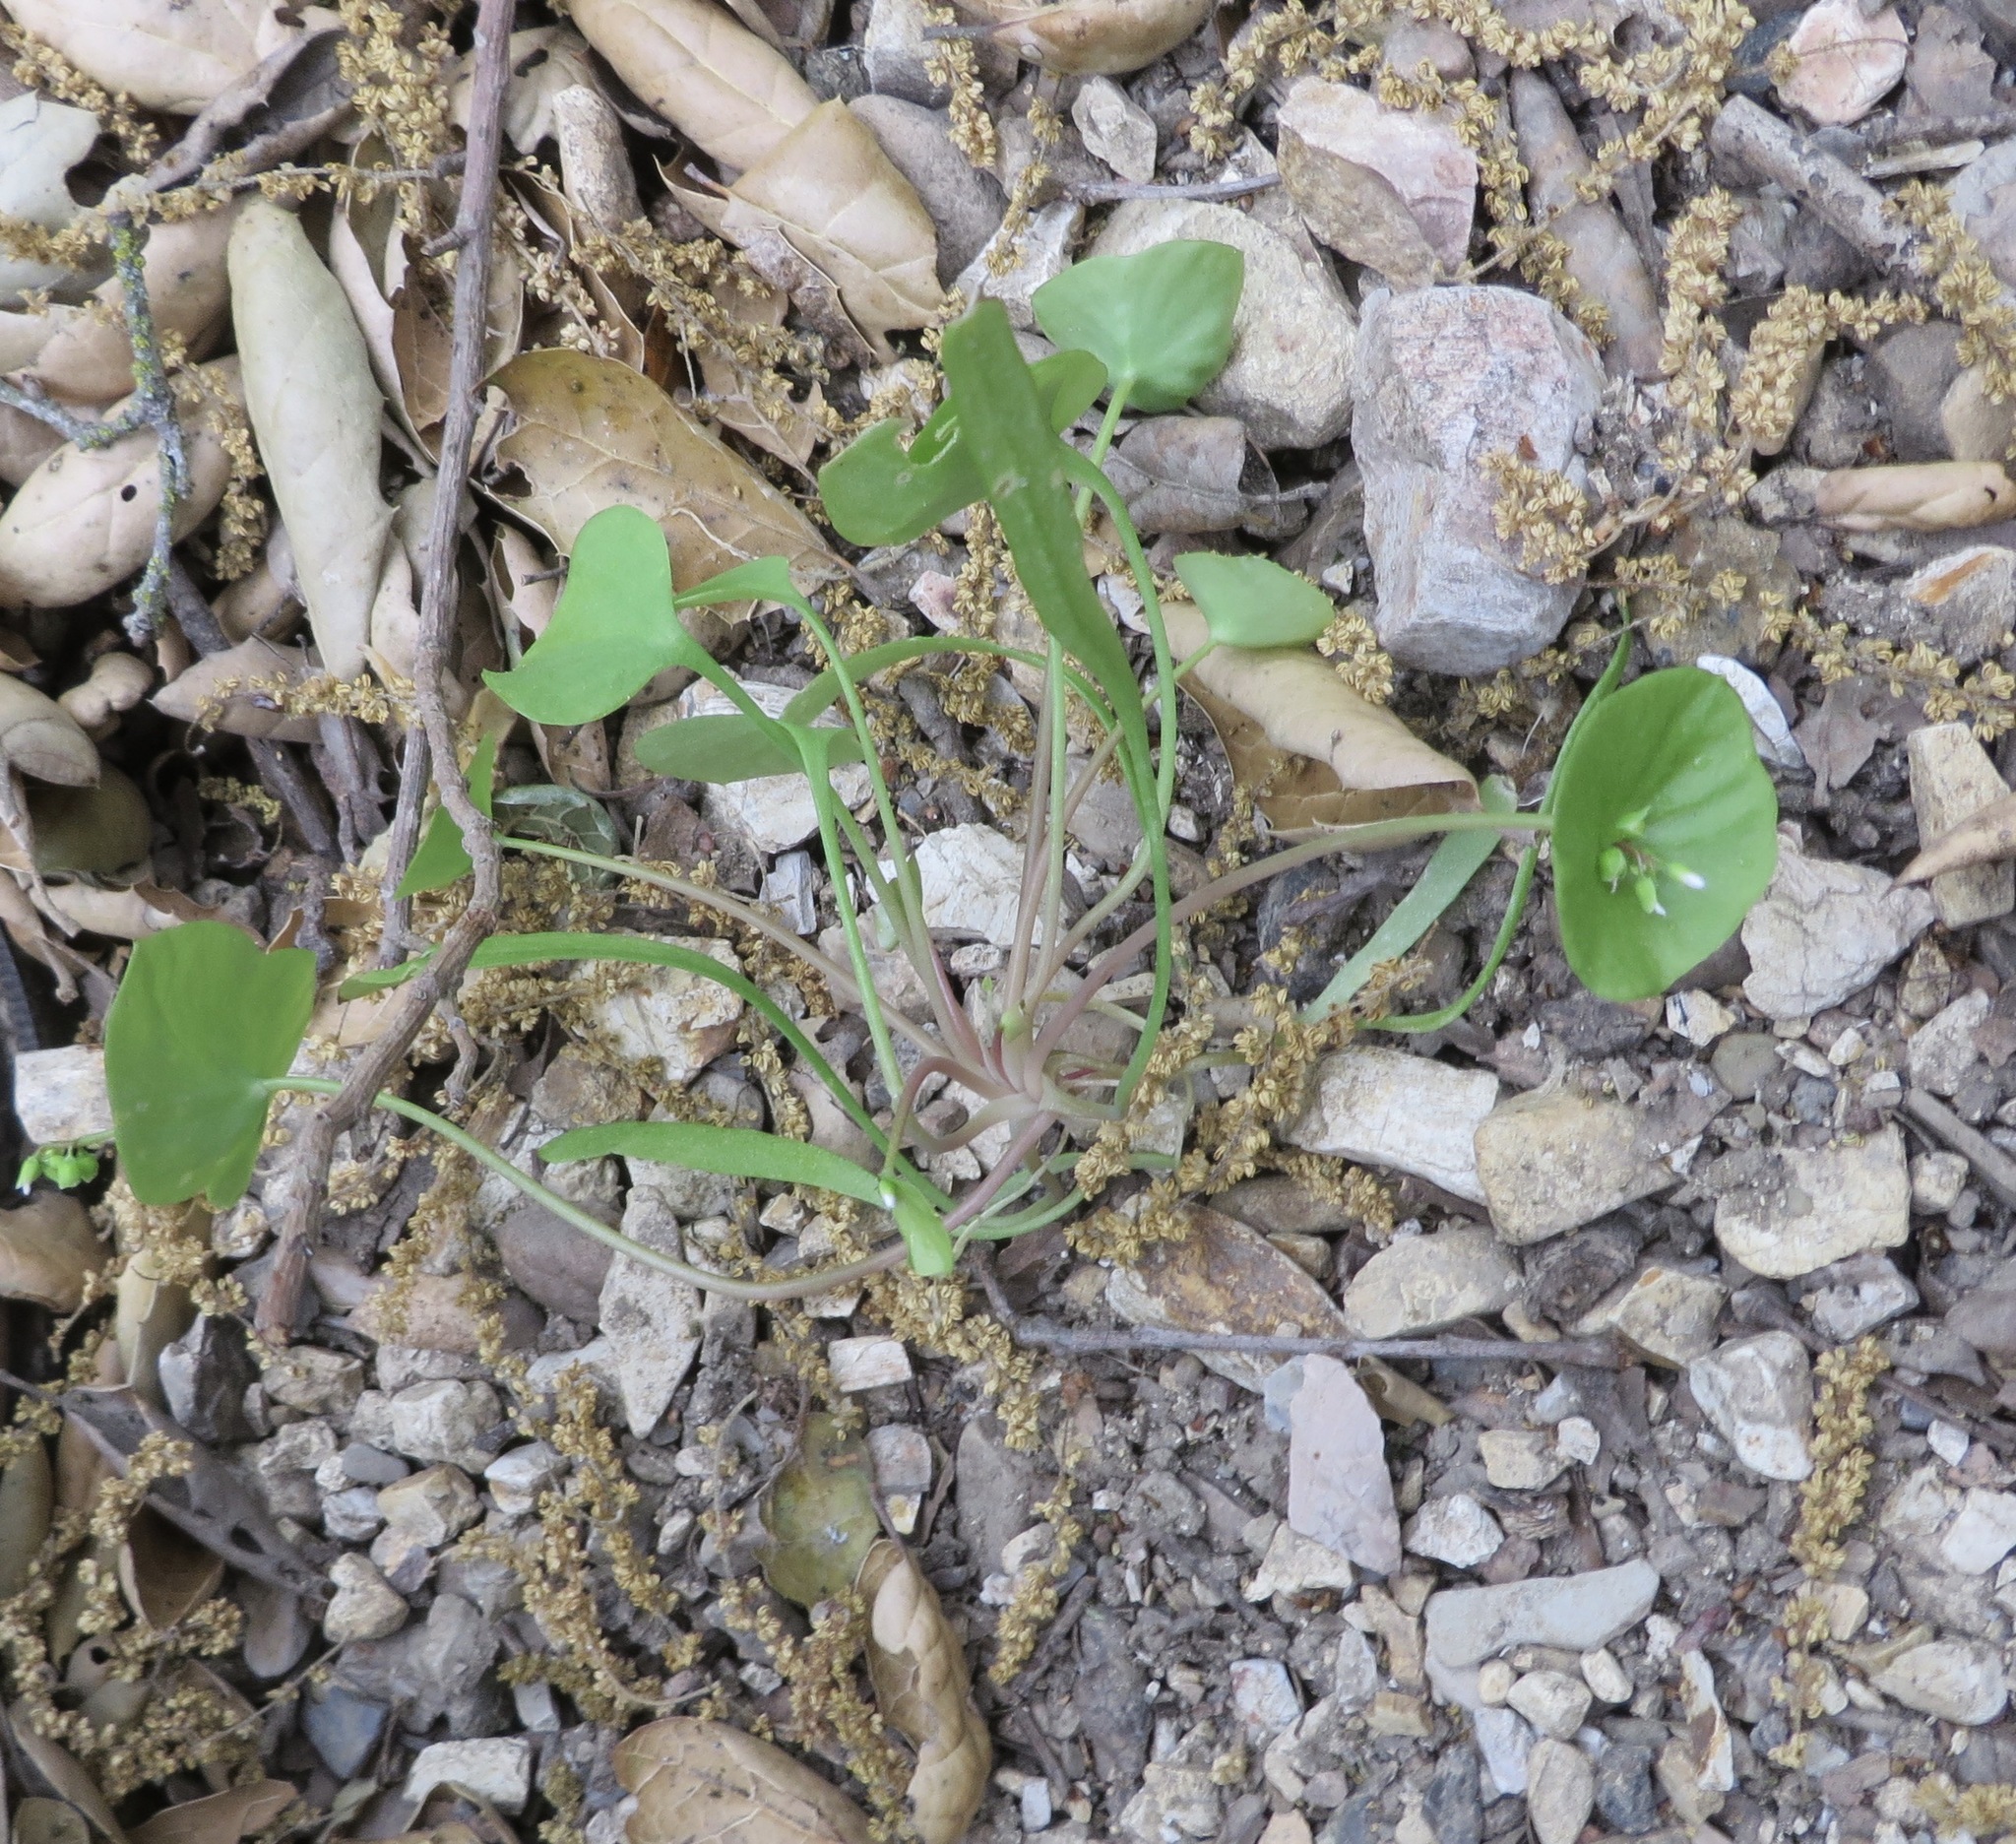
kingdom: Plantae
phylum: Tracheophyta
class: Magnoliopsida
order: Caryophyllales
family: Montiaceae
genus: Claytonia
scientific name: Claytonia perfoliata
